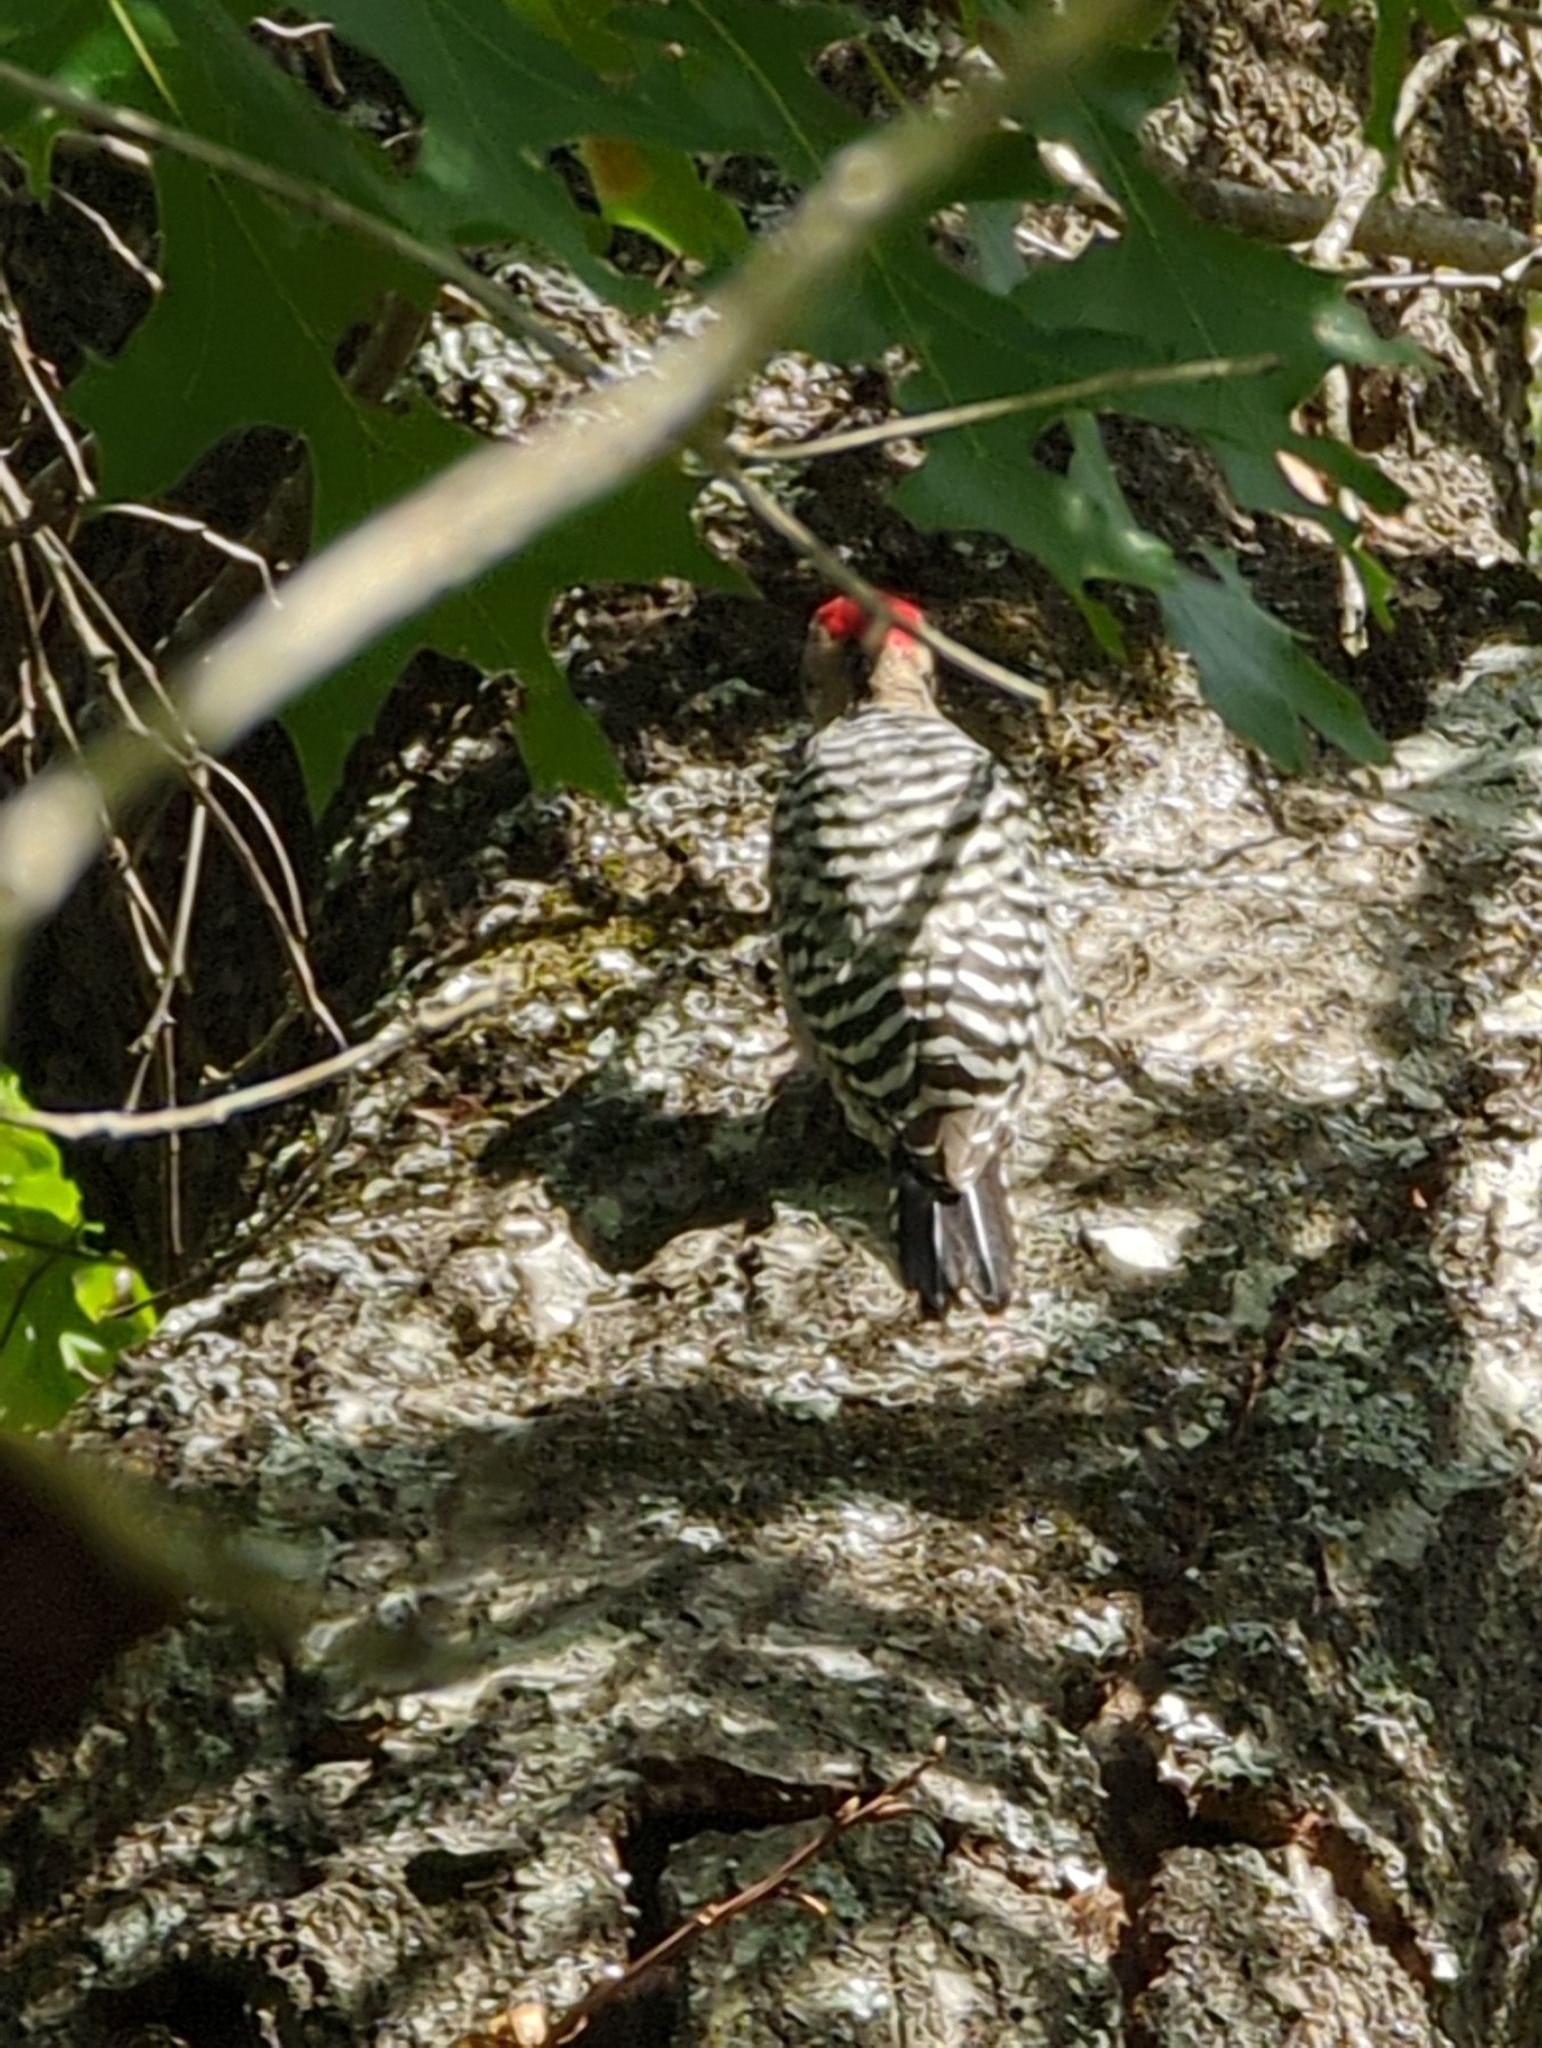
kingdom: Animalia
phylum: Chordata
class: Aves
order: Piciformes
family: Picidae
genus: Dryobates
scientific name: Dryobates scalaris
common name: Ladder-backed woodpecker
